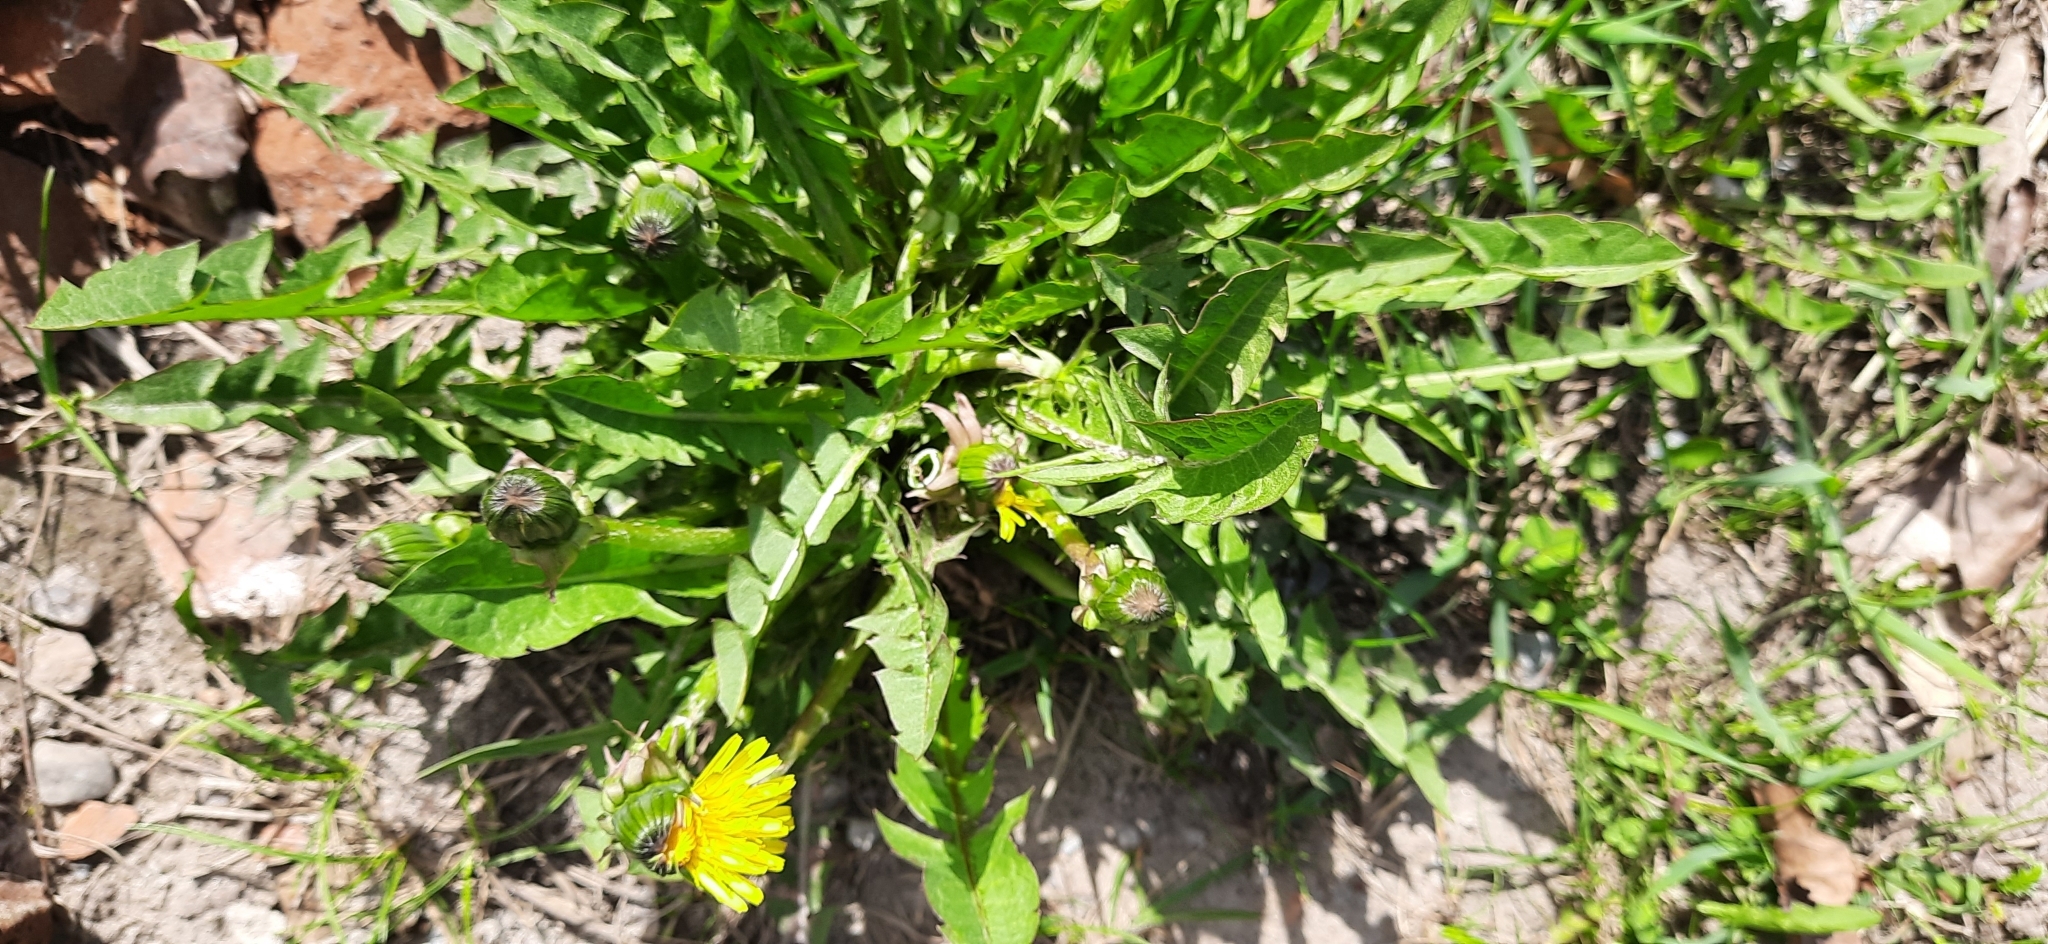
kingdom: Plantae
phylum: Tracheophyta
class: Magnoliopsida
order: Asterales
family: Asteraceae
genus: Taraxacum
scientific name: Taraxacum officinale
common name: Common dandelion
